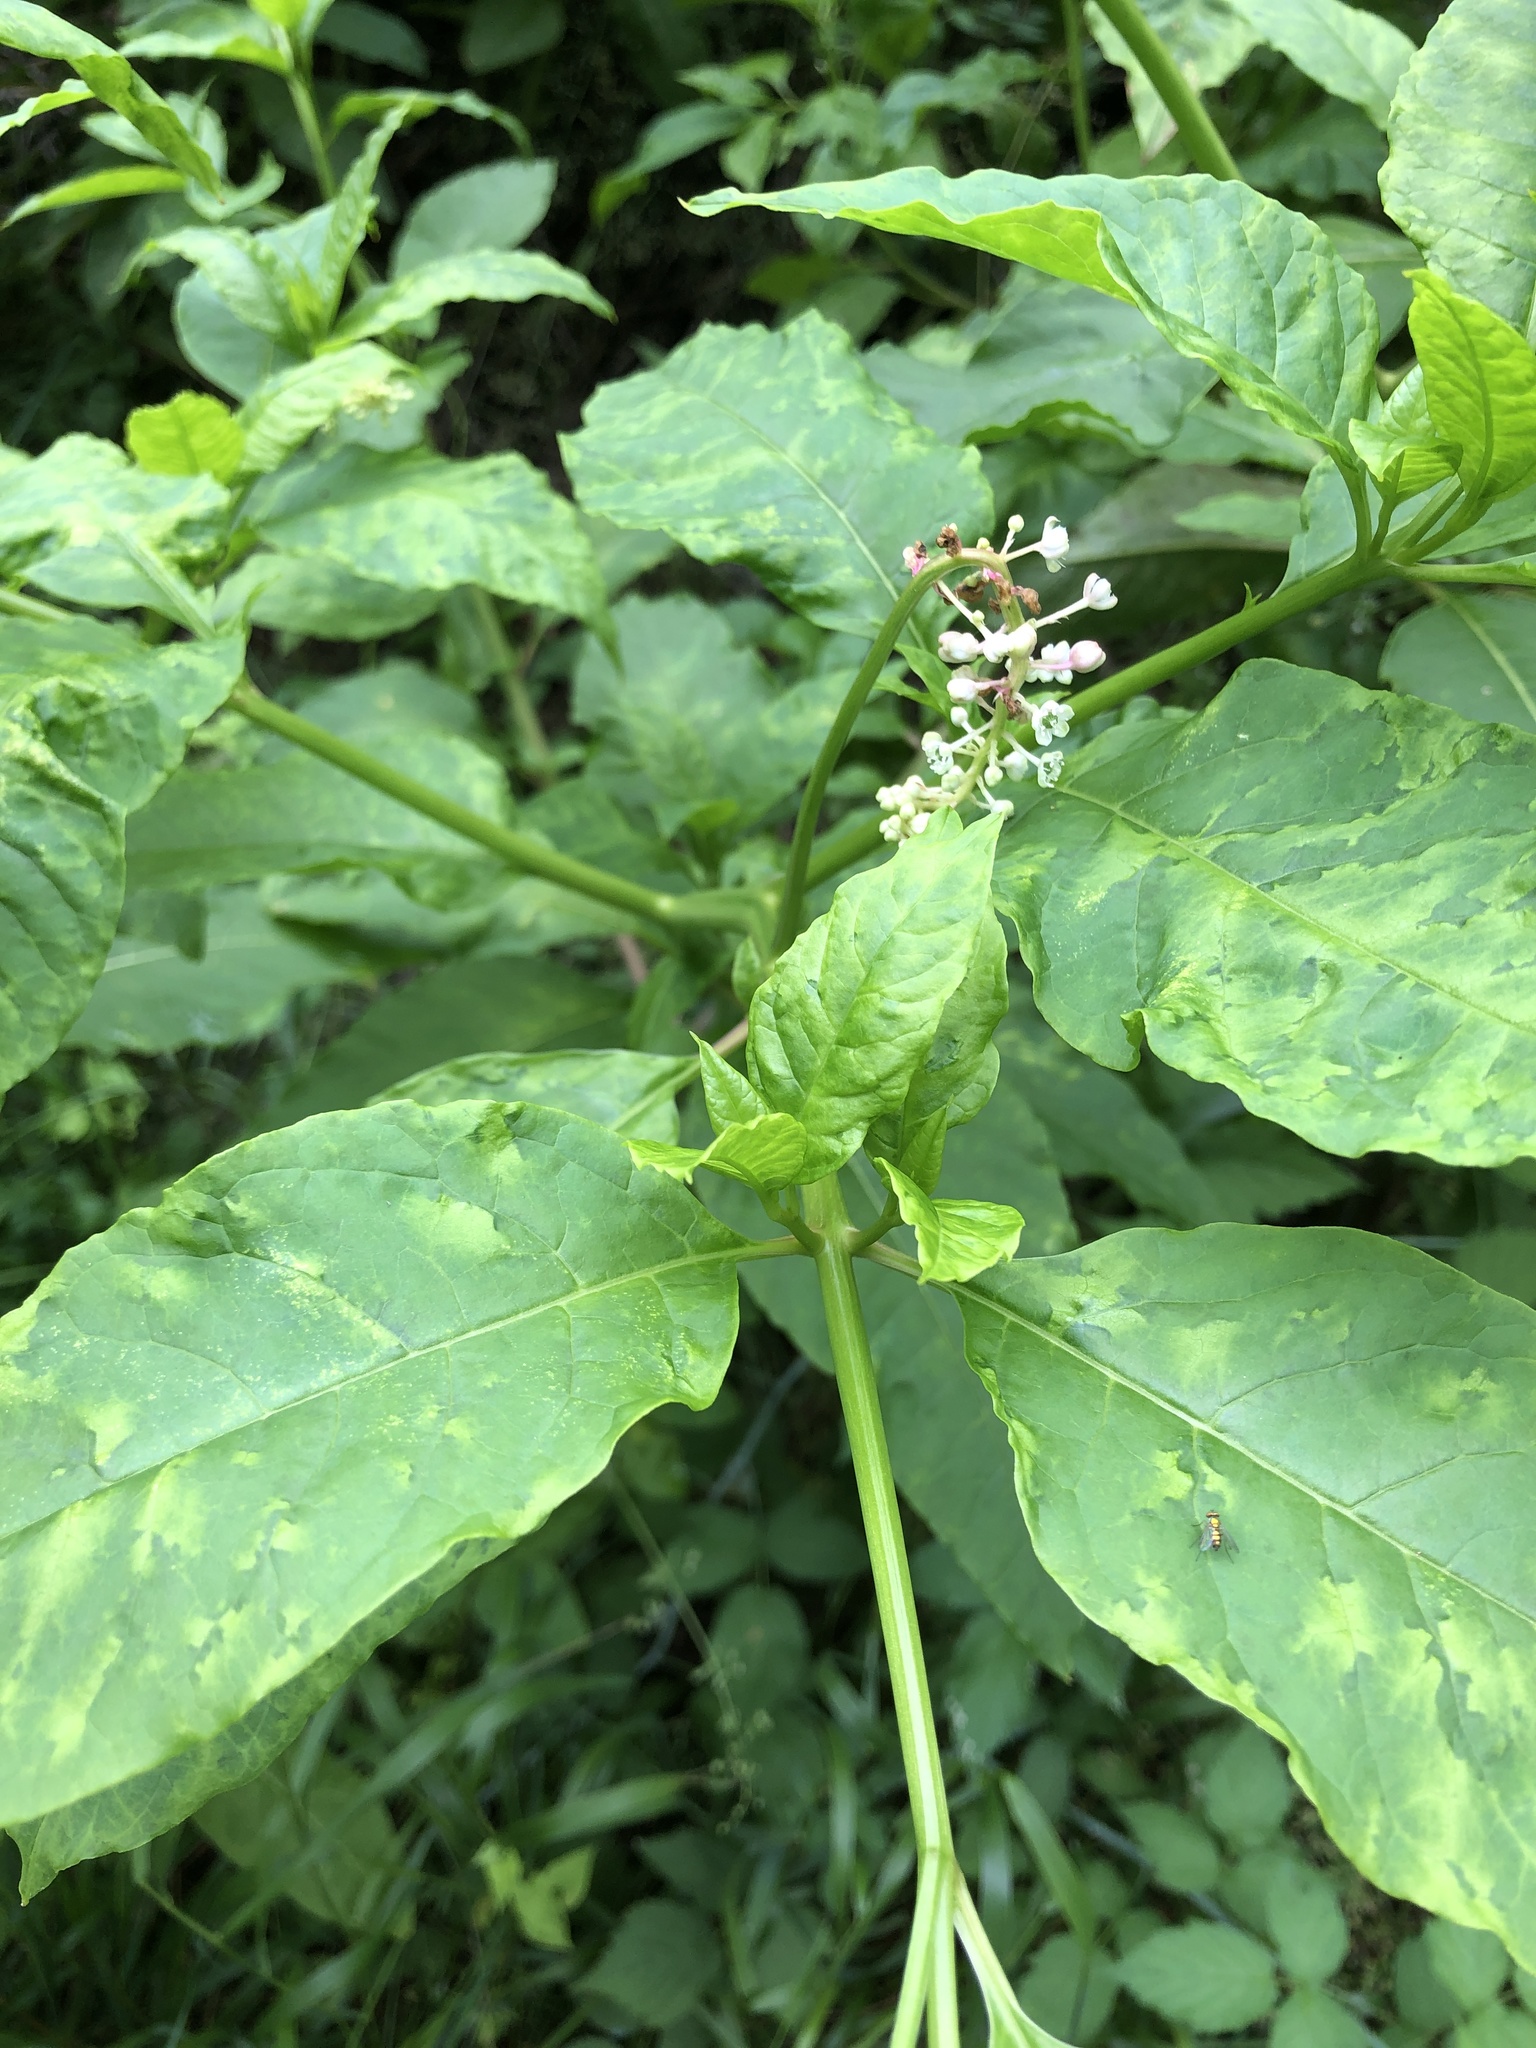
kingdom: Plantae
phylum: Tracheophyta
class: Magnoliopsida
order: Caryophyllales
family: Phytolaccaceae
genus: Phytolacca
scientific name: Phytolacca americana
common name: American pokeweed
